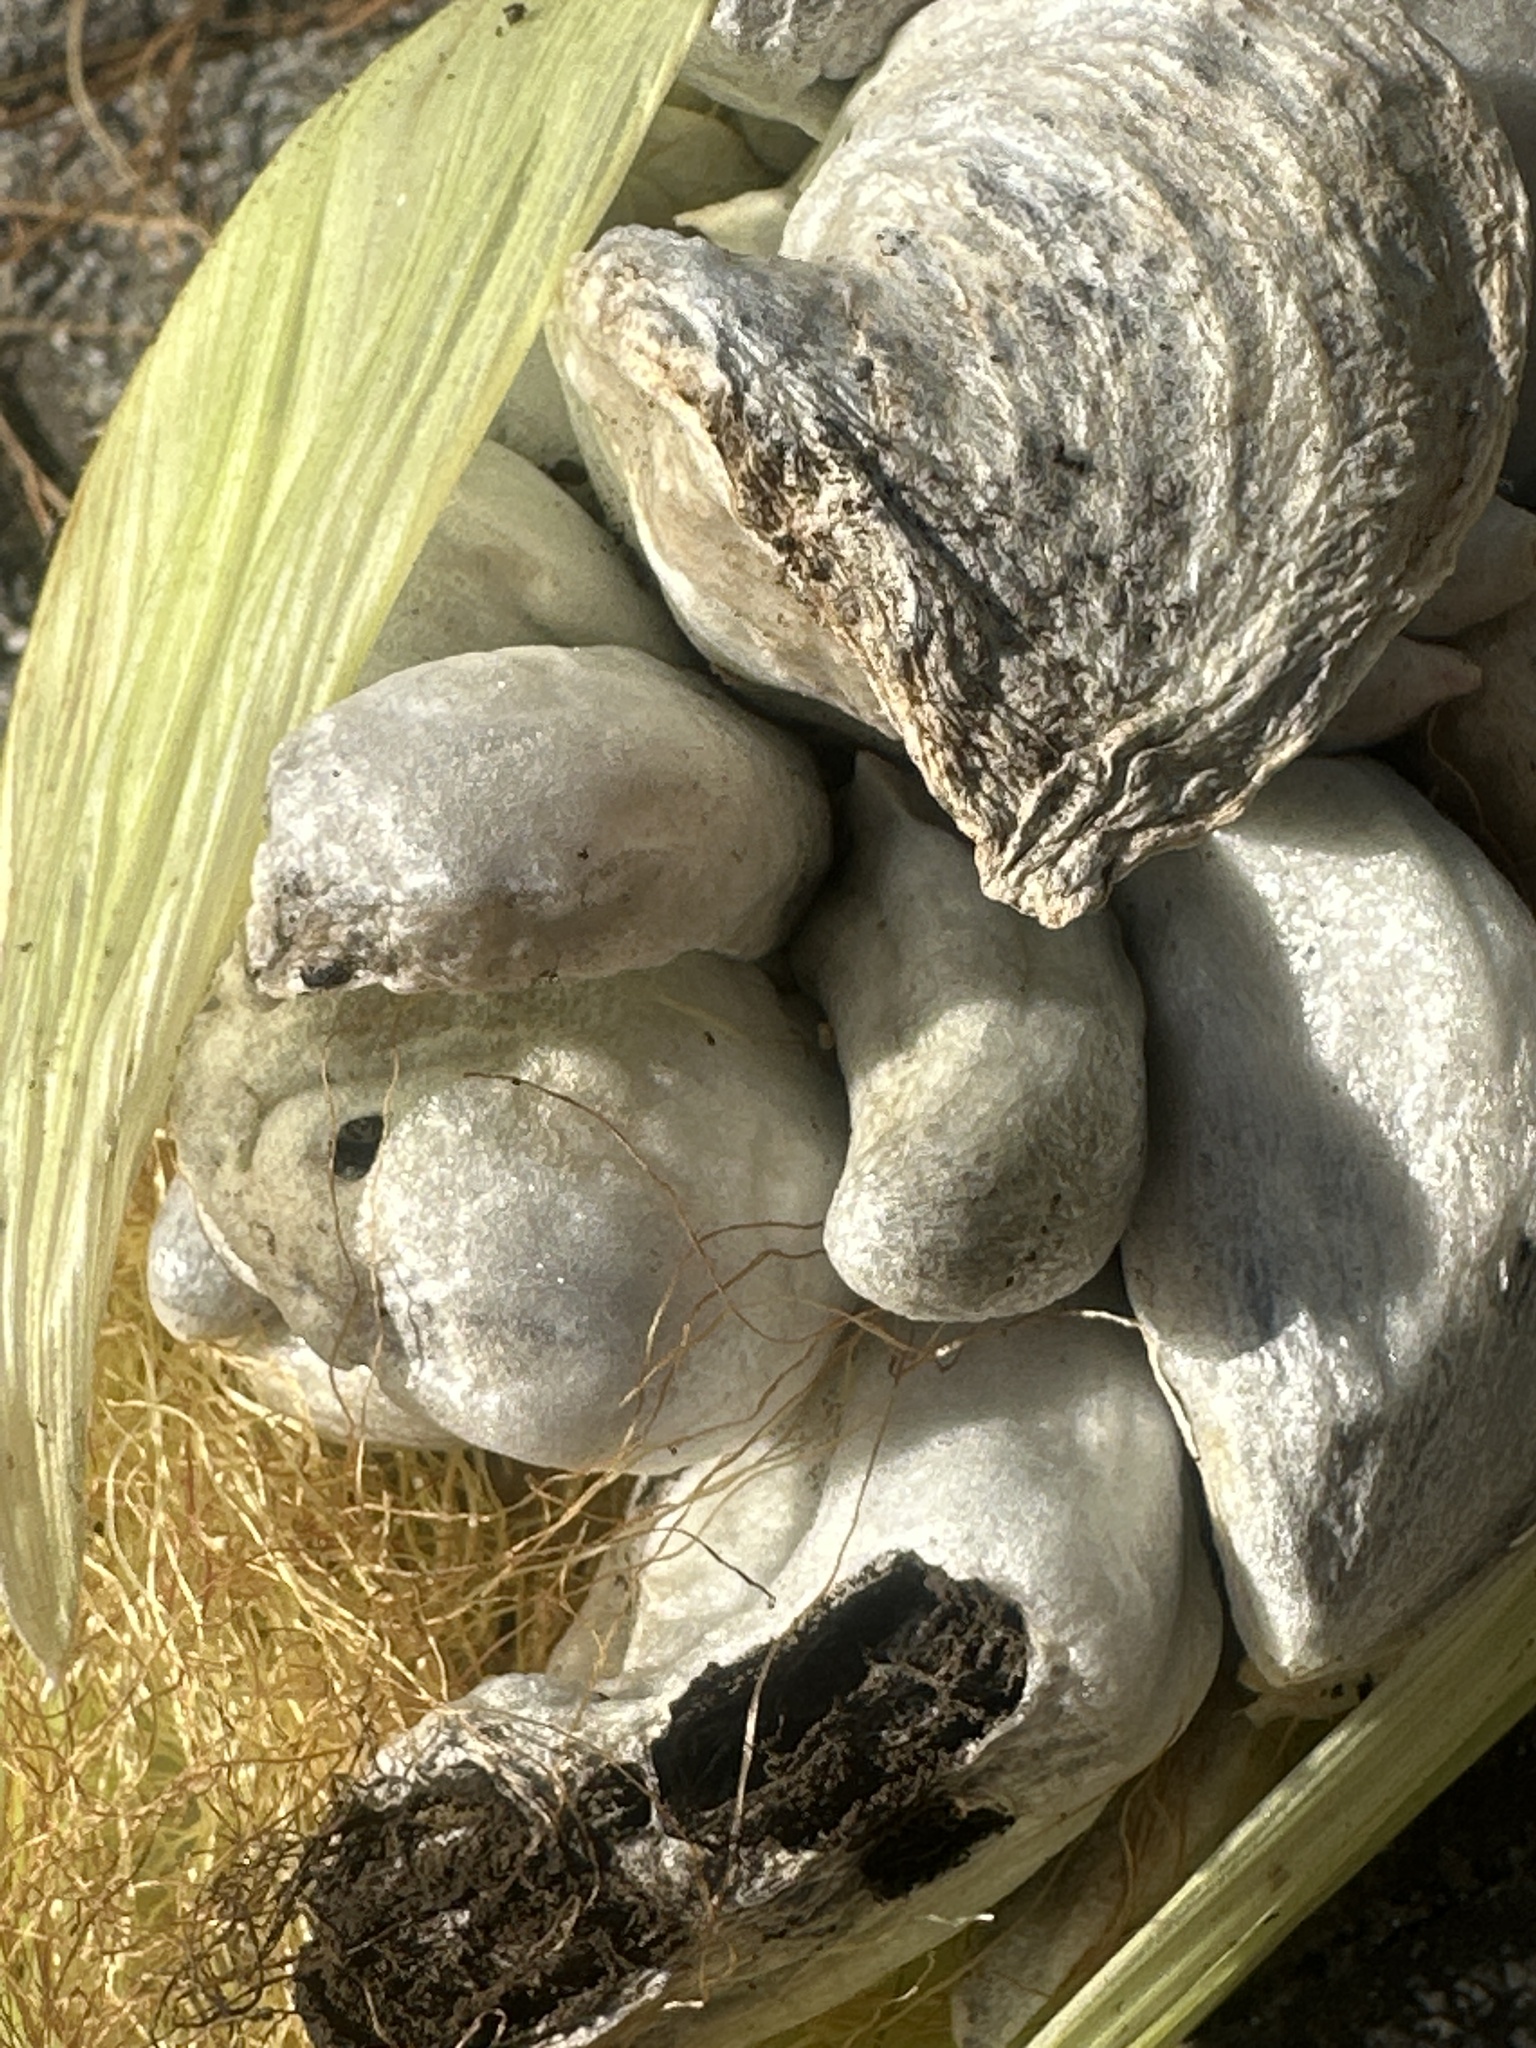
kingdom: Fungi
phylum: Basidiomycota
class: Ustilaginomycetes
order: Ustilaginales
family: Ustilaginaceae
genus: Mycosarcoma
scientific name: Mycosarcoma maydis
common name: Corn smut
